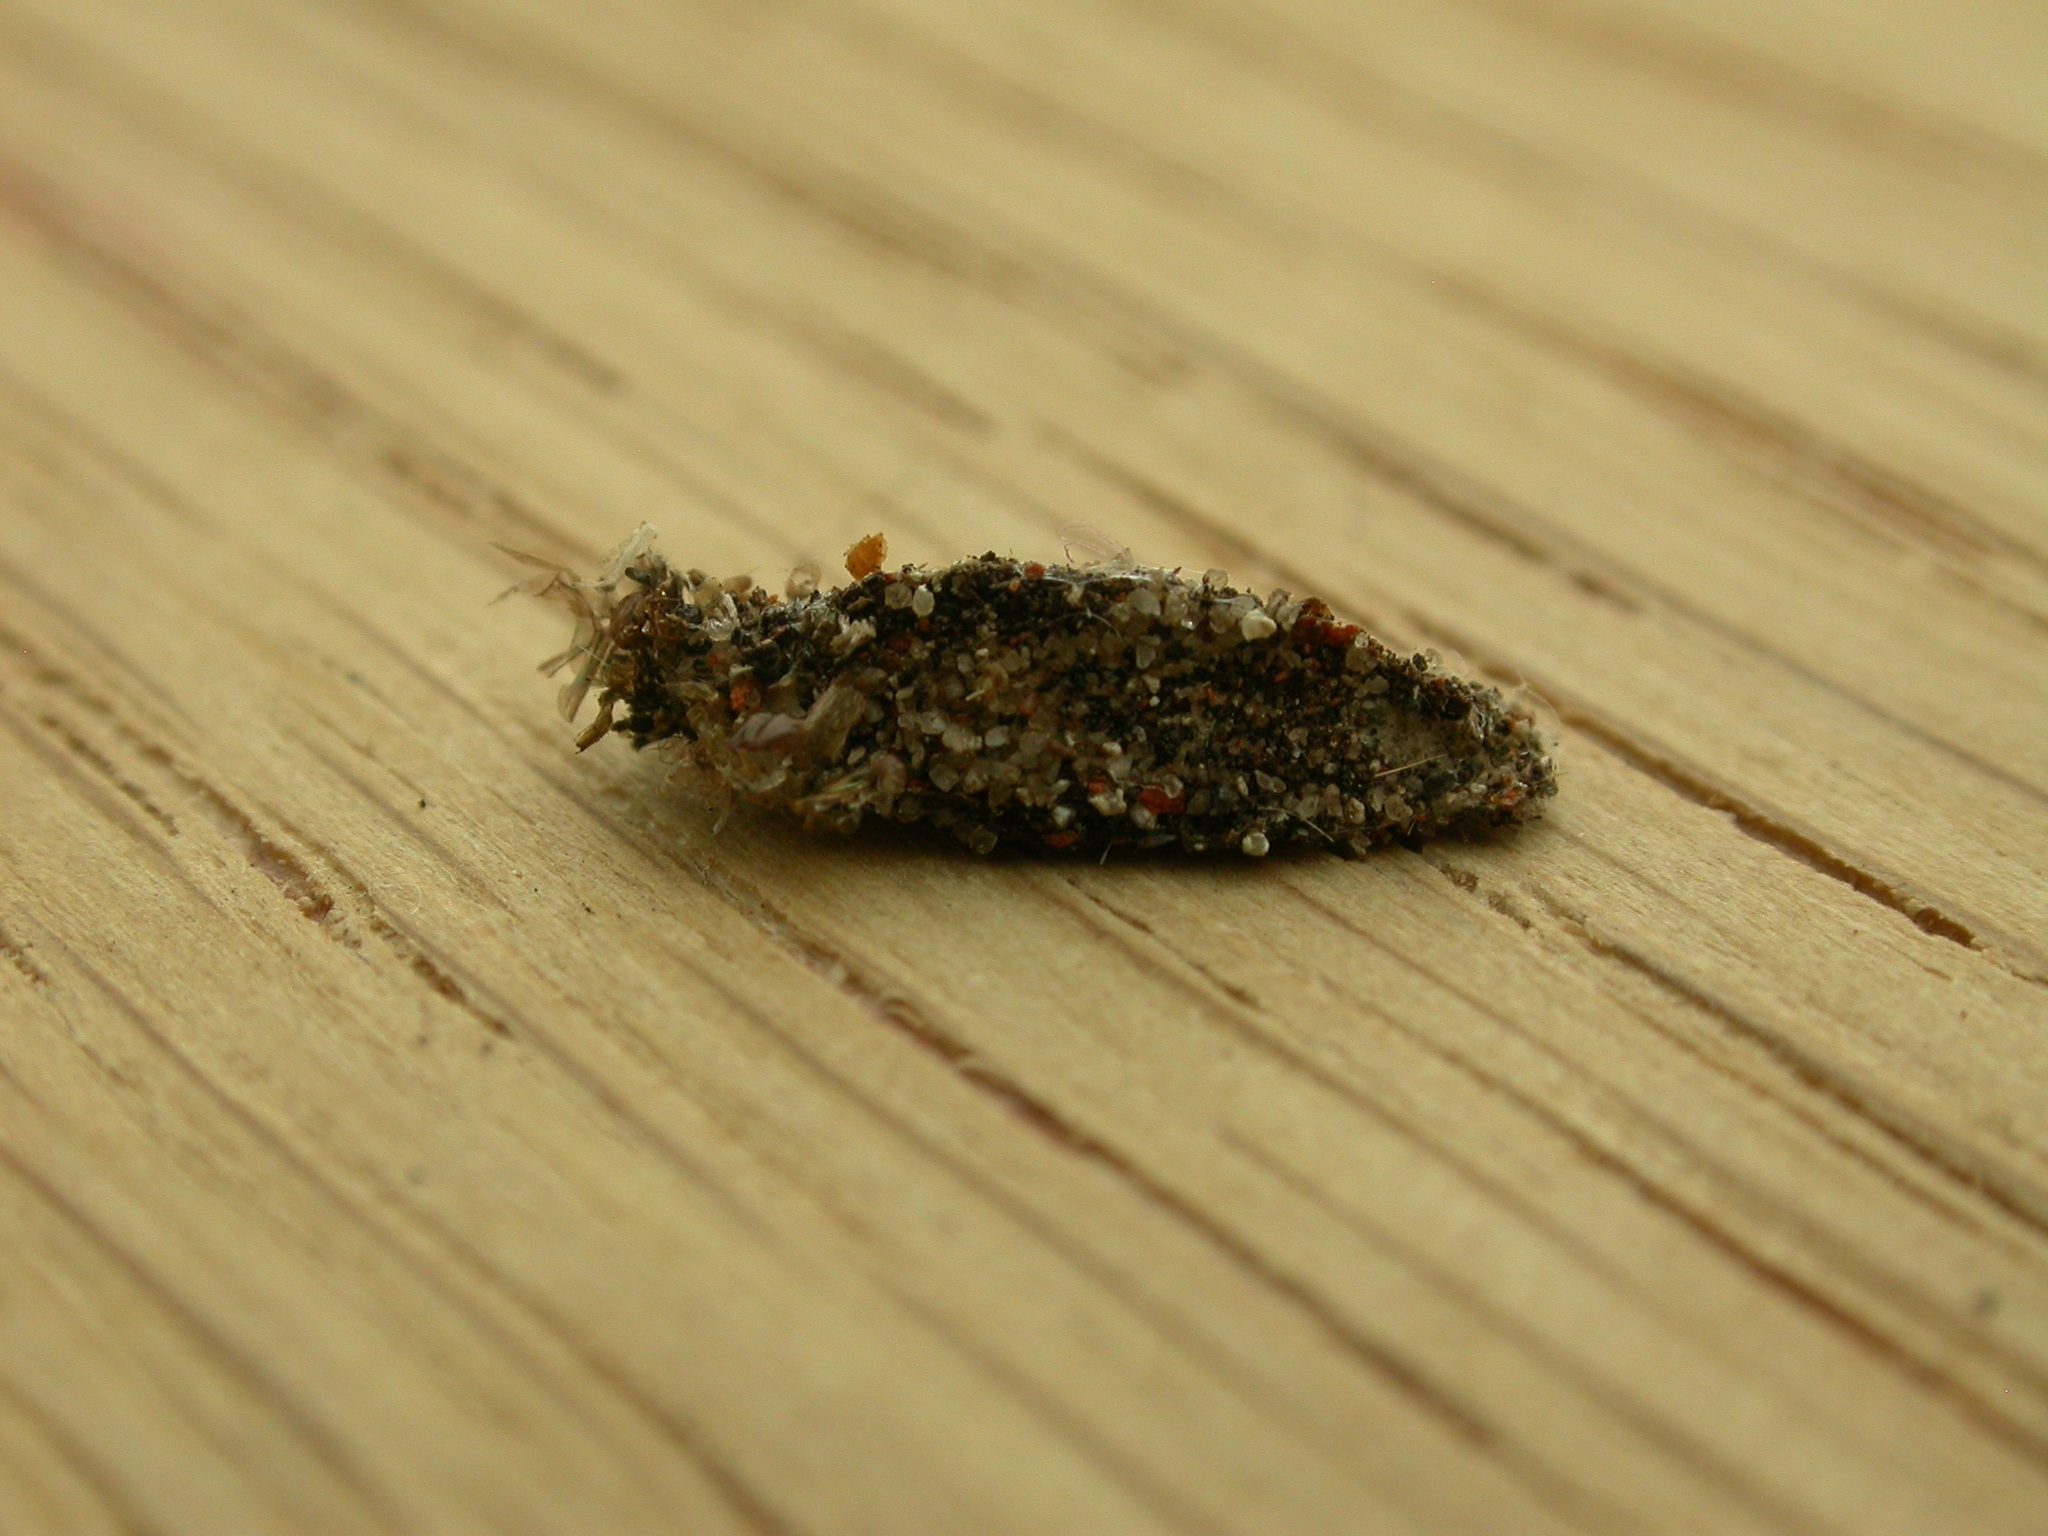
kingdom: Animalia
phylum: Arthropoda
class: Insecta
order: Lepidoptera
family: Psychidae
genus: Dahlica
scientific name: Dahlica triquetrella
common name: Narrow lichen case-bearer
